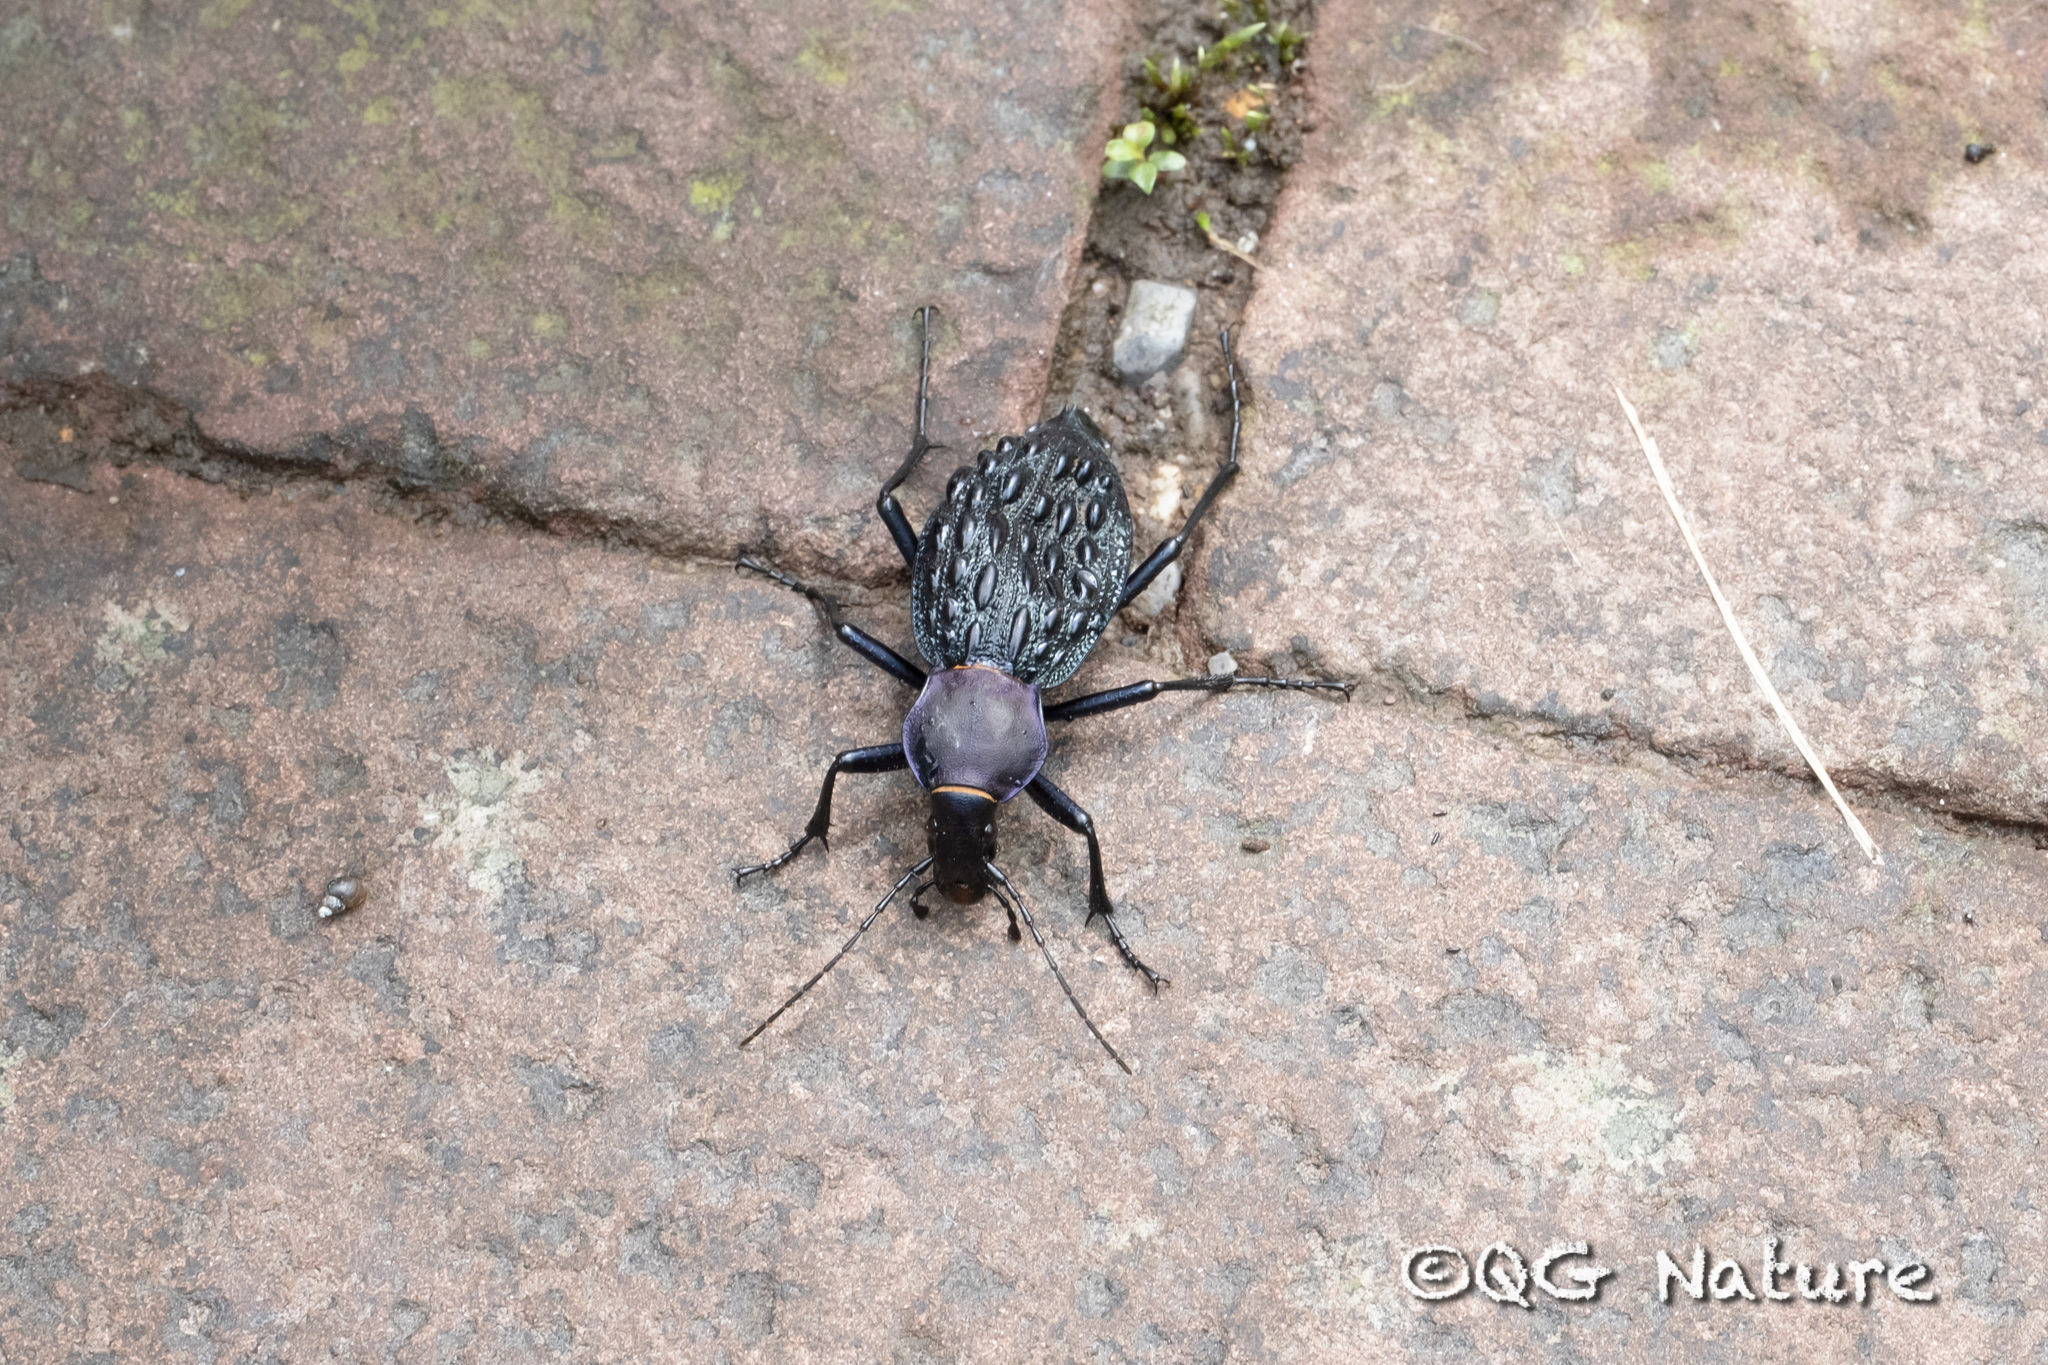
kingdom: Animalia
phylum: Arthropoda
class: Insecta
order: Coleoptera
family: Carabidae
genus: Carabus
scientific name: Carabus pustulifer
